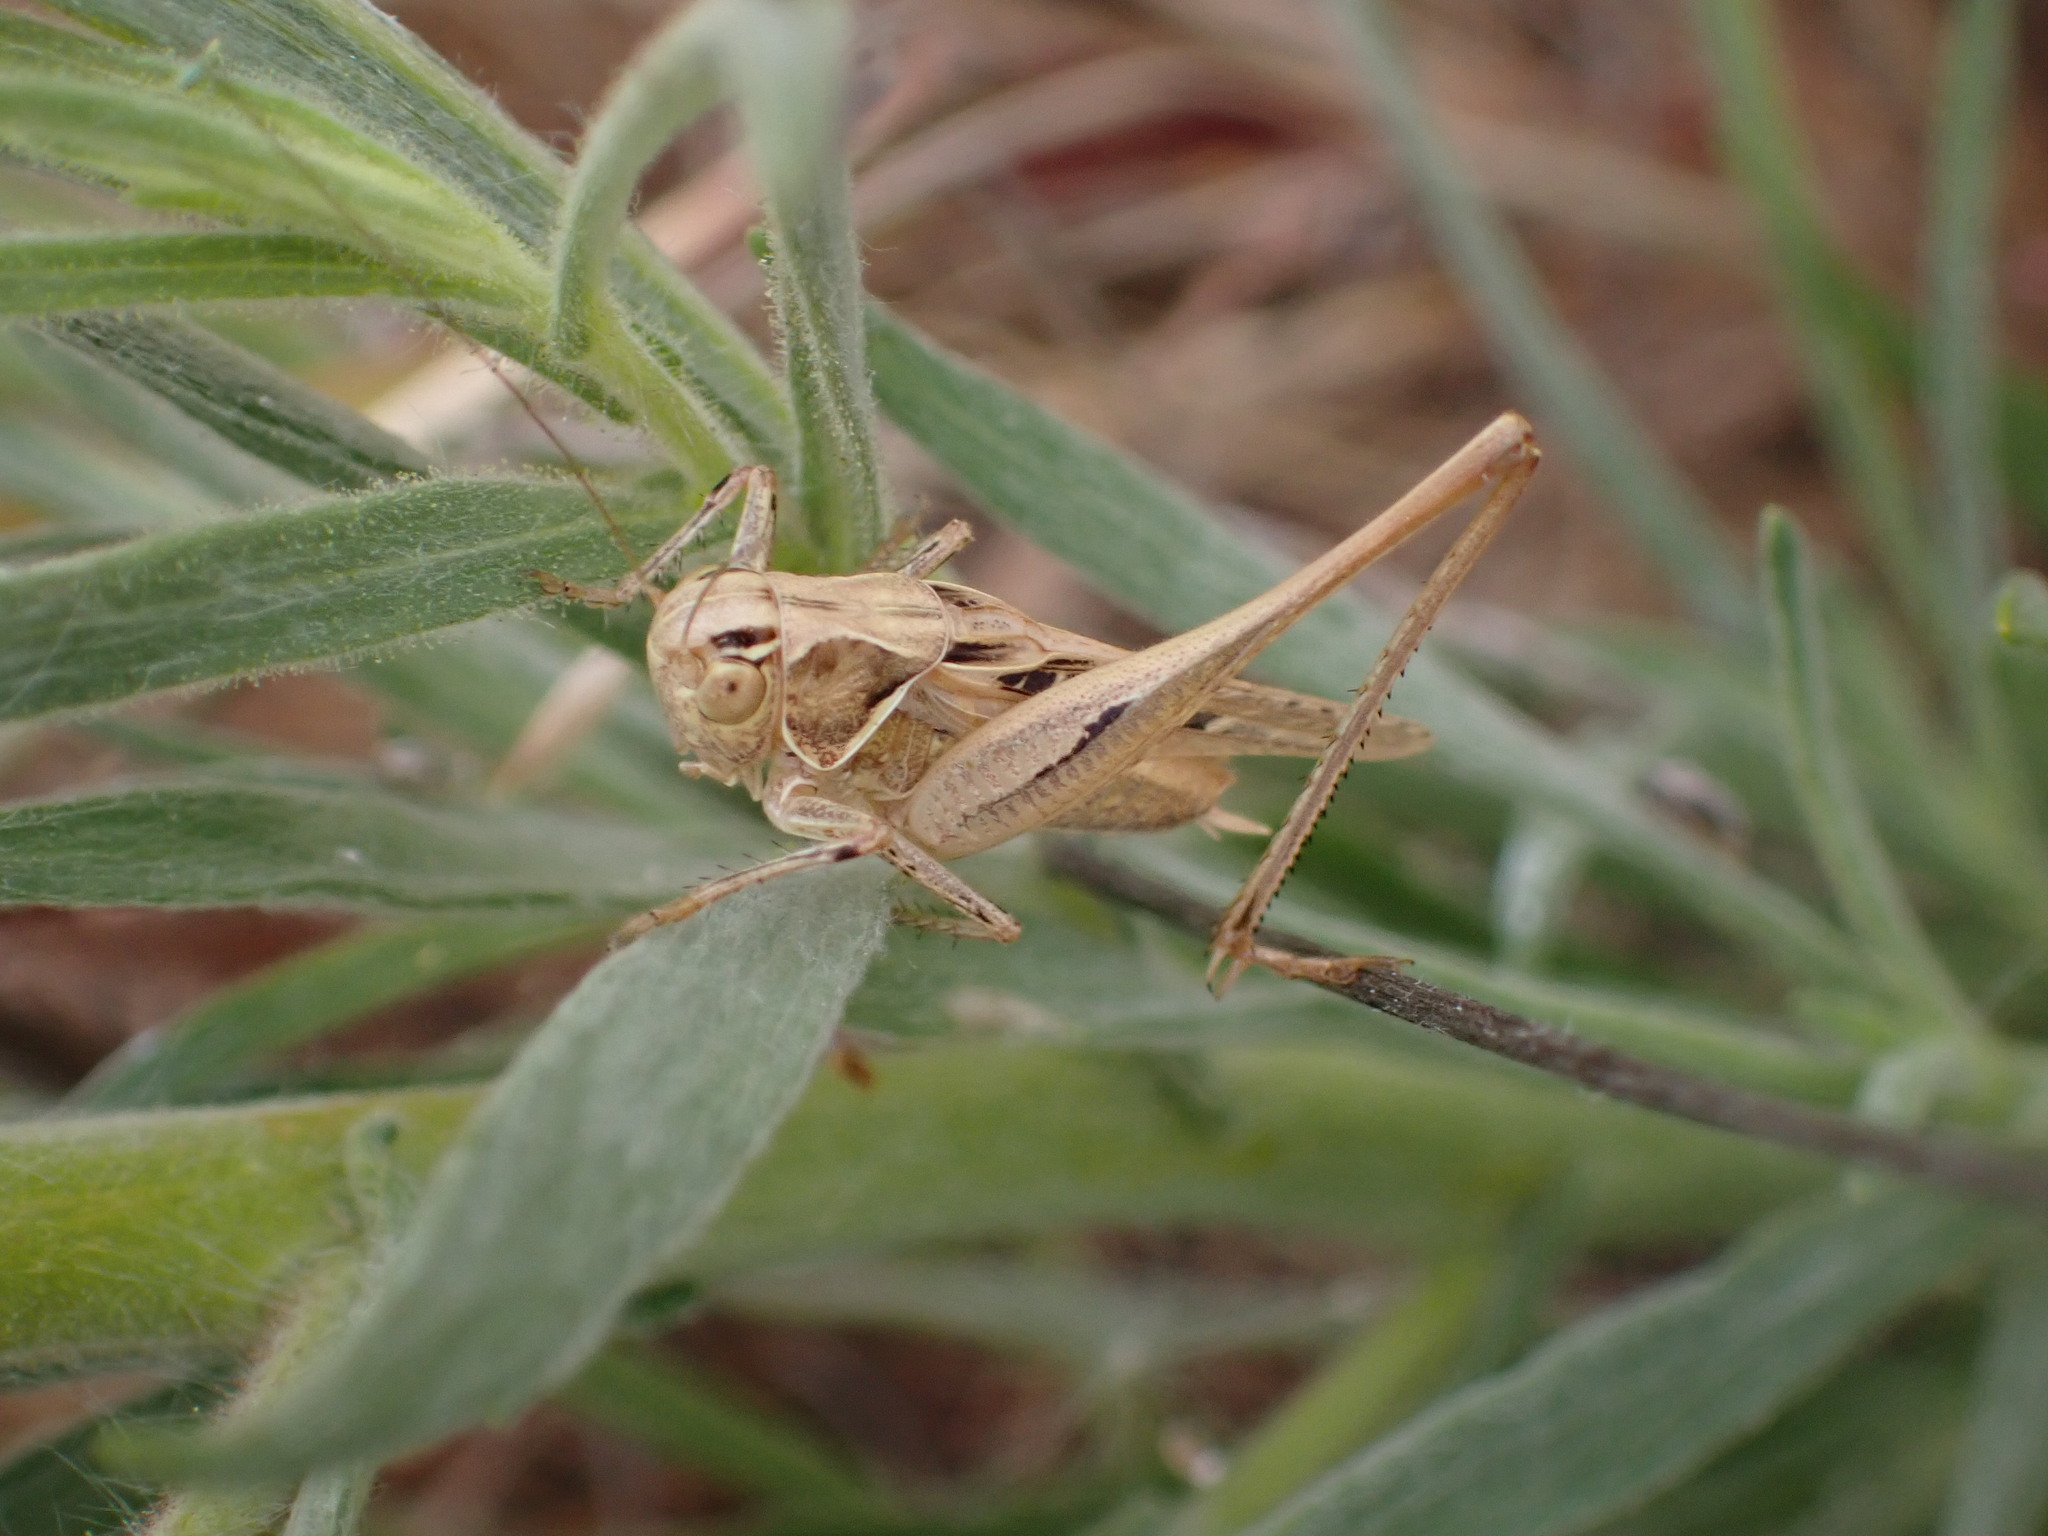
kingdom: Animalia
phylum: Arthropoda
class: Insecta
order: Orthoptera
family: Tettigoniidae
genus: Tessellana
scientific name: Tessellana tessellata
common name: Grasshopper
